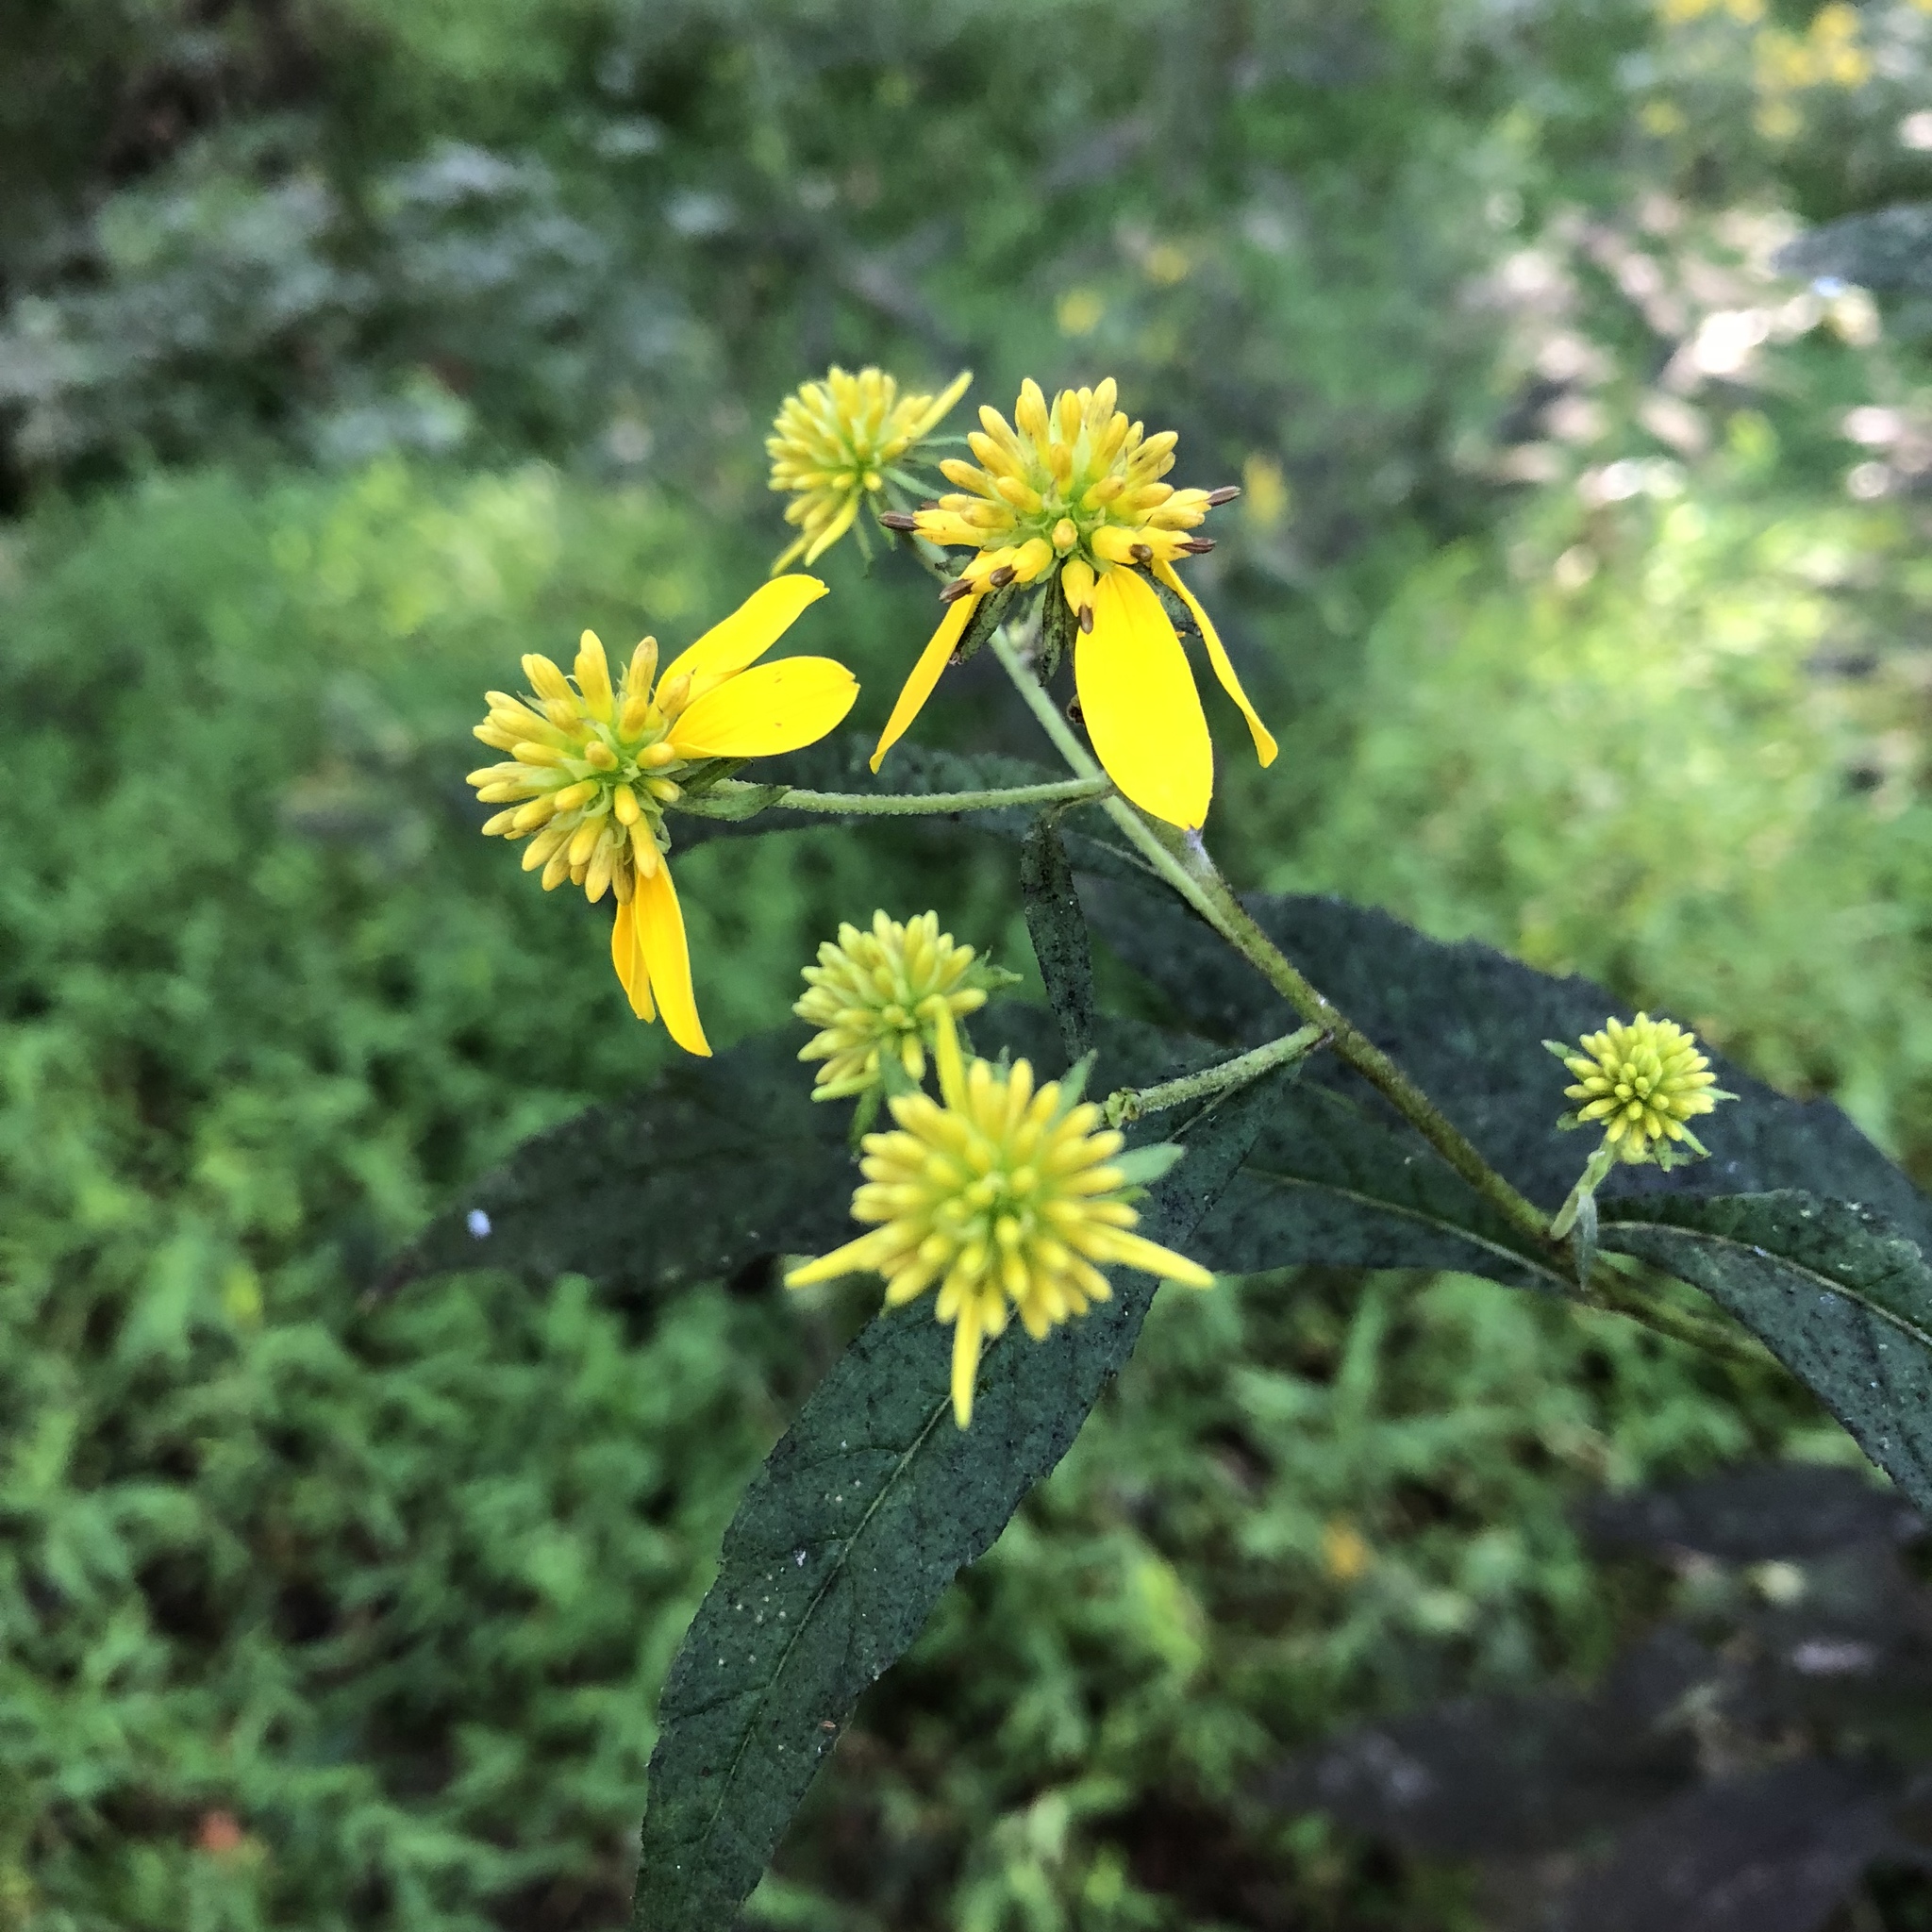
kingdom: Plantae
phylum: Tracheophyta
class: Magnoliopsida
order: Asterales
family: Asteraceae
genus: Verbesina
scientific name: Verbesina alternifolia
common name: Wingstem
